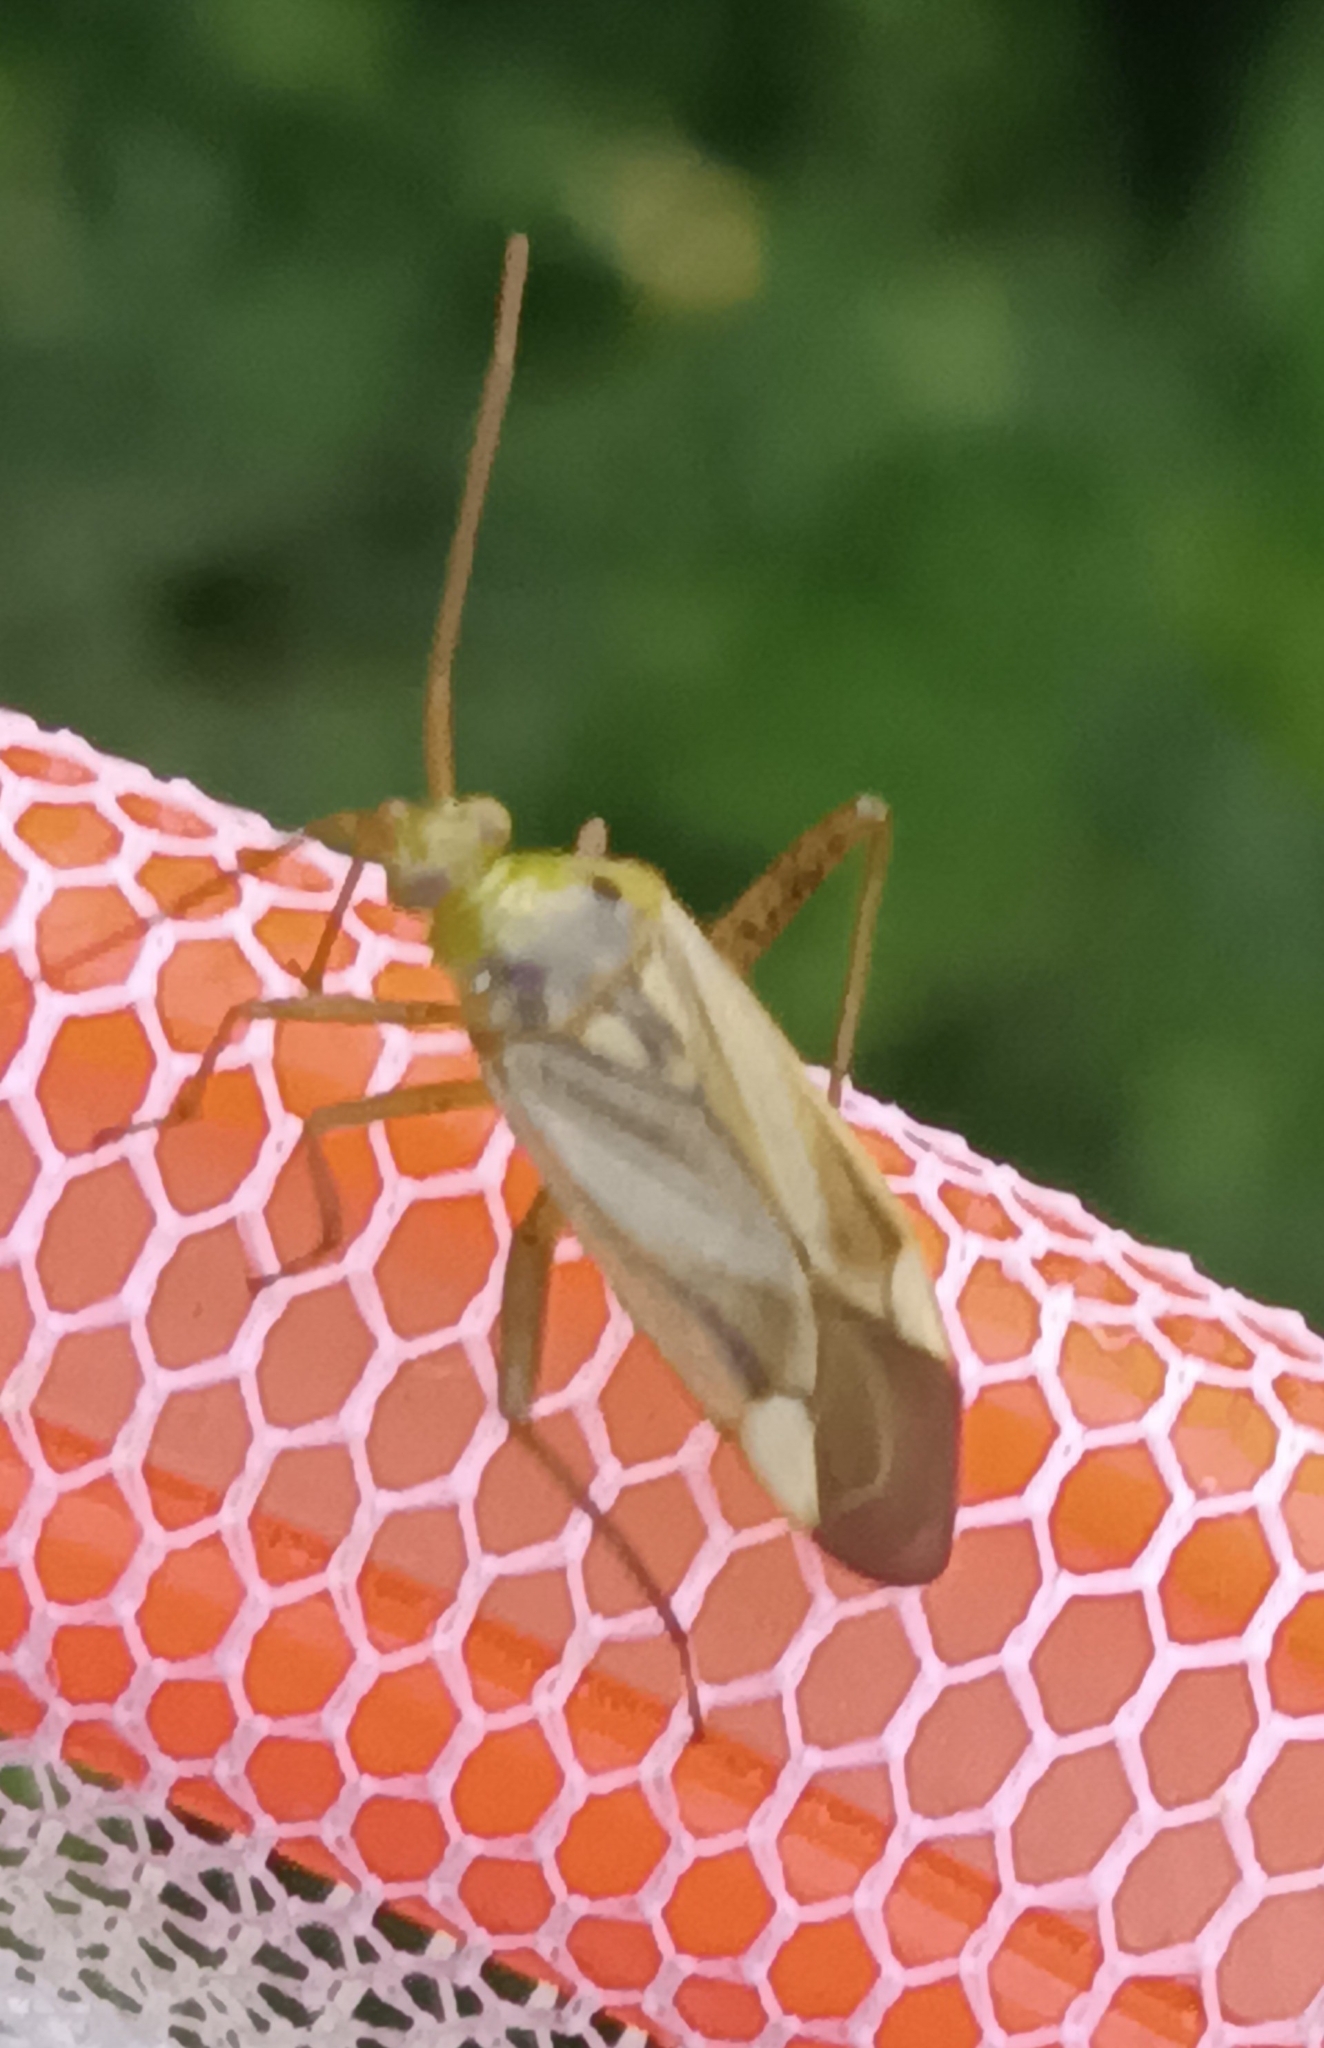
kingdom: Animalia
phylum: Arthropoda
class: Insecta
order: Hemiptera
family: Miridae
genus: Adelphocoris
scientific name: Adelphocoris lineolatus
